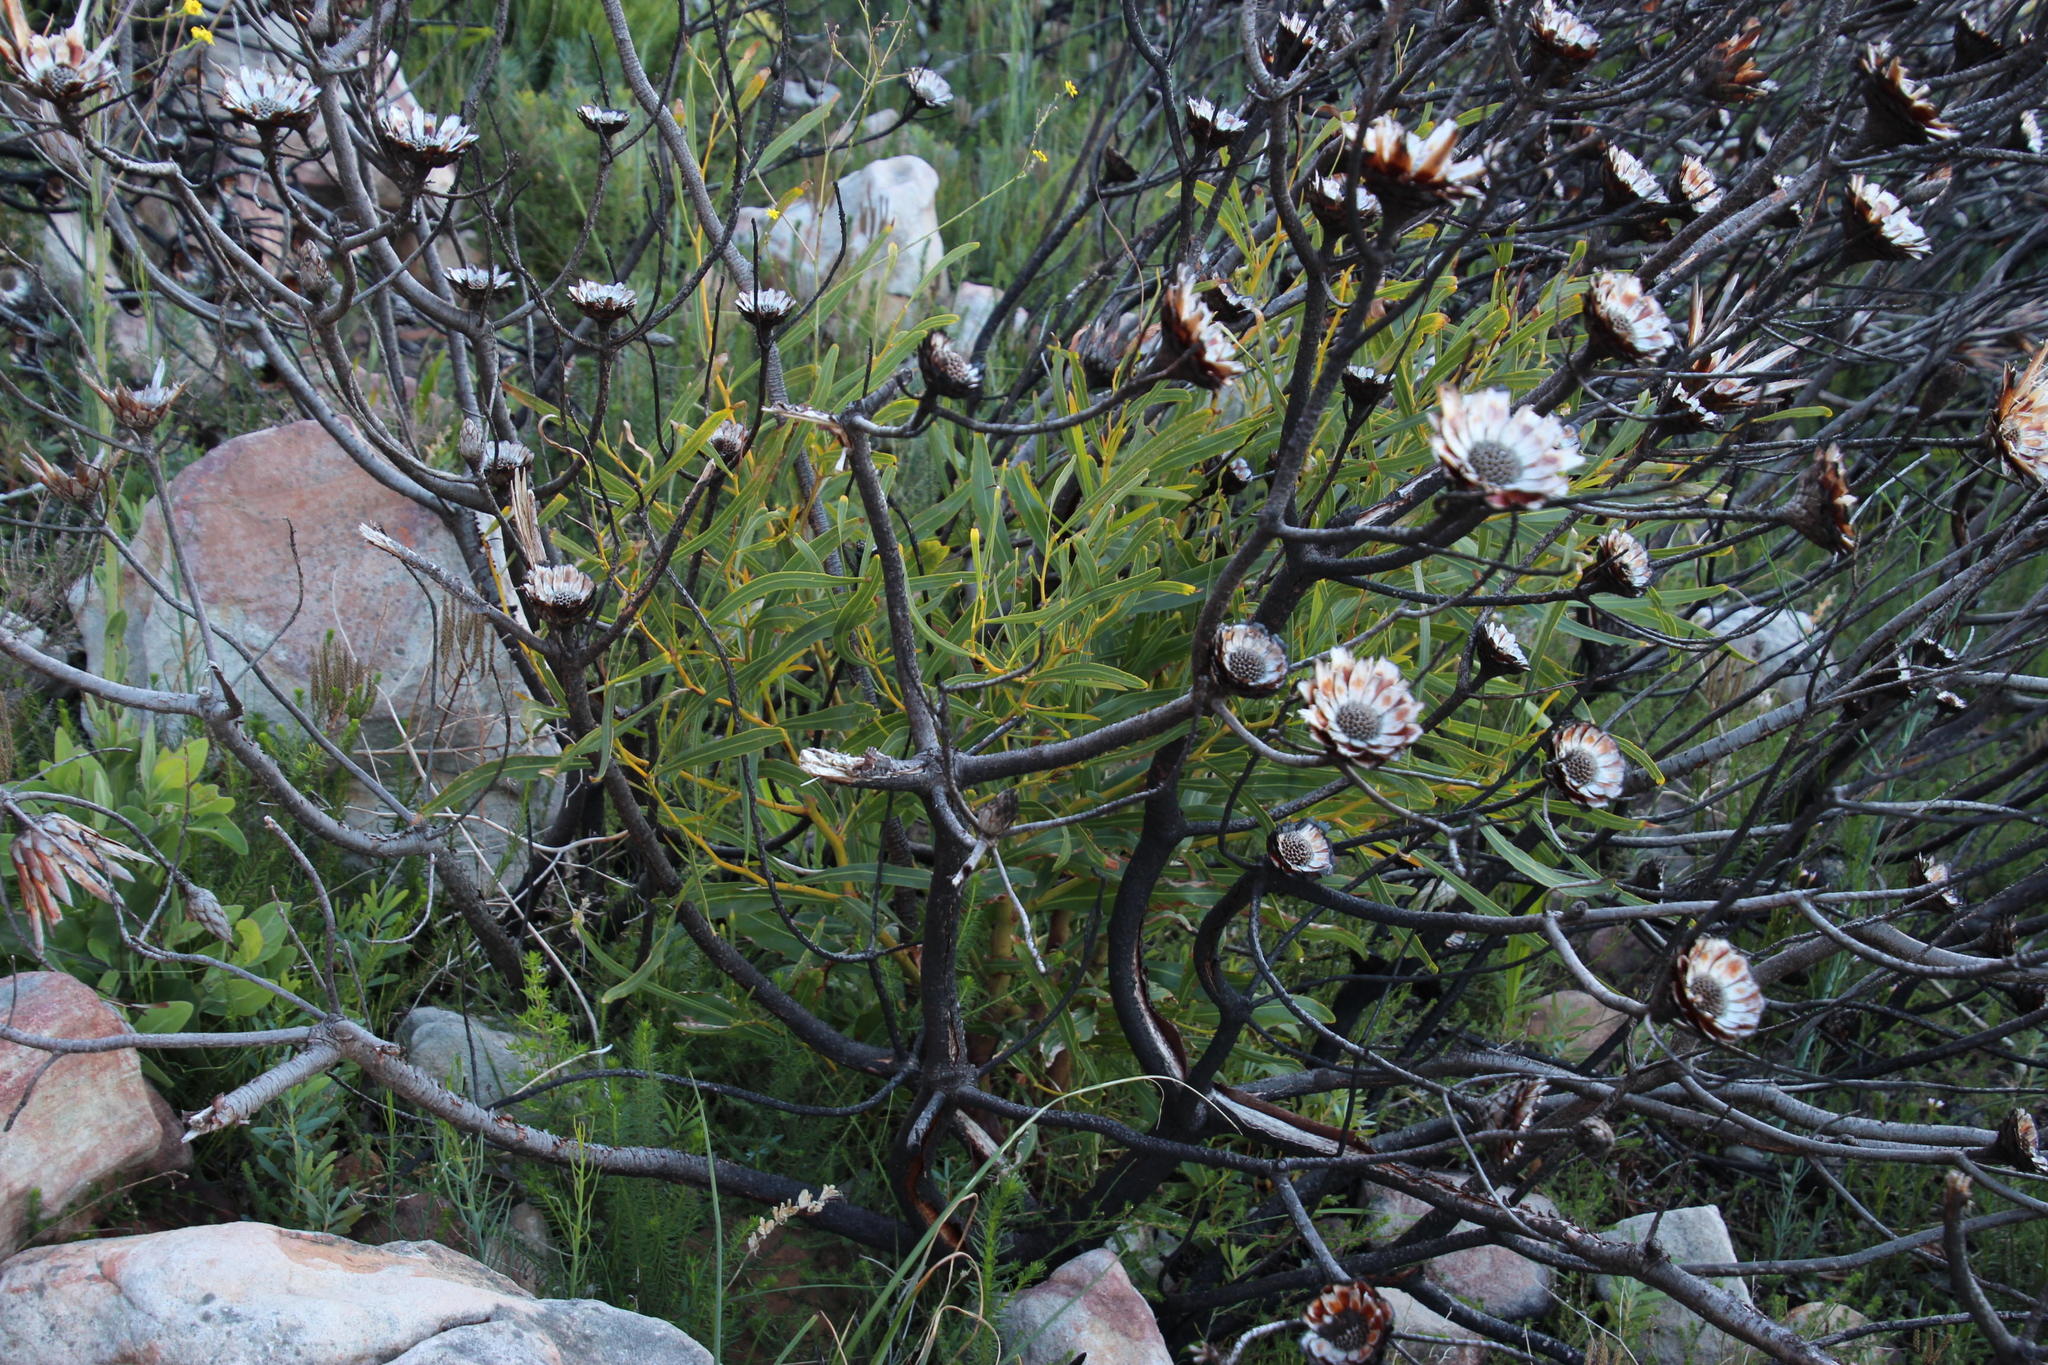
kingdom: Plantae
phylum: Tracheophyta
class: Magnoliopsida
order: Fabales
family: Fabaceae
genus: Acacia
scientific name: Acacia saligna
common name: Orange wattle
